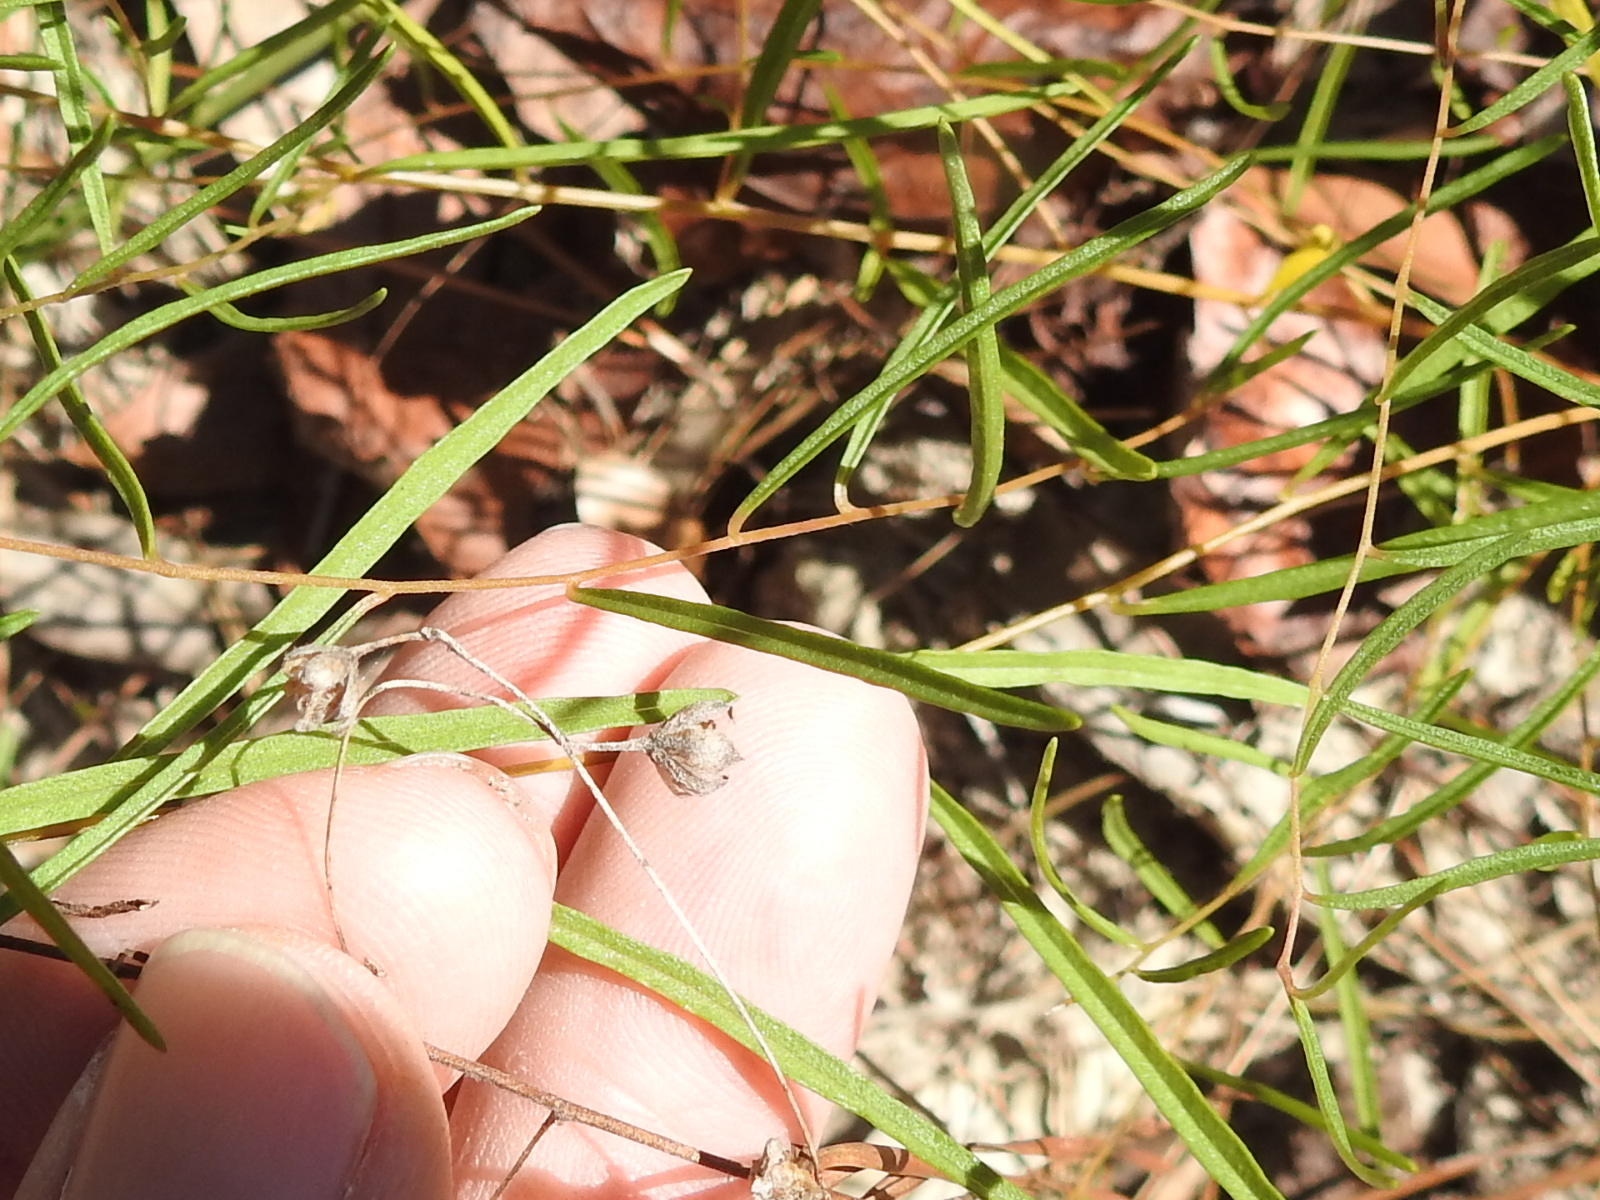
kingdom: Plantae
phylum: Tracheophyta
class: Magnoliopsida
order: Solanales
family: Convolvulaceae
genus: Stylisma
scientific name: Stylisma pickeringii
